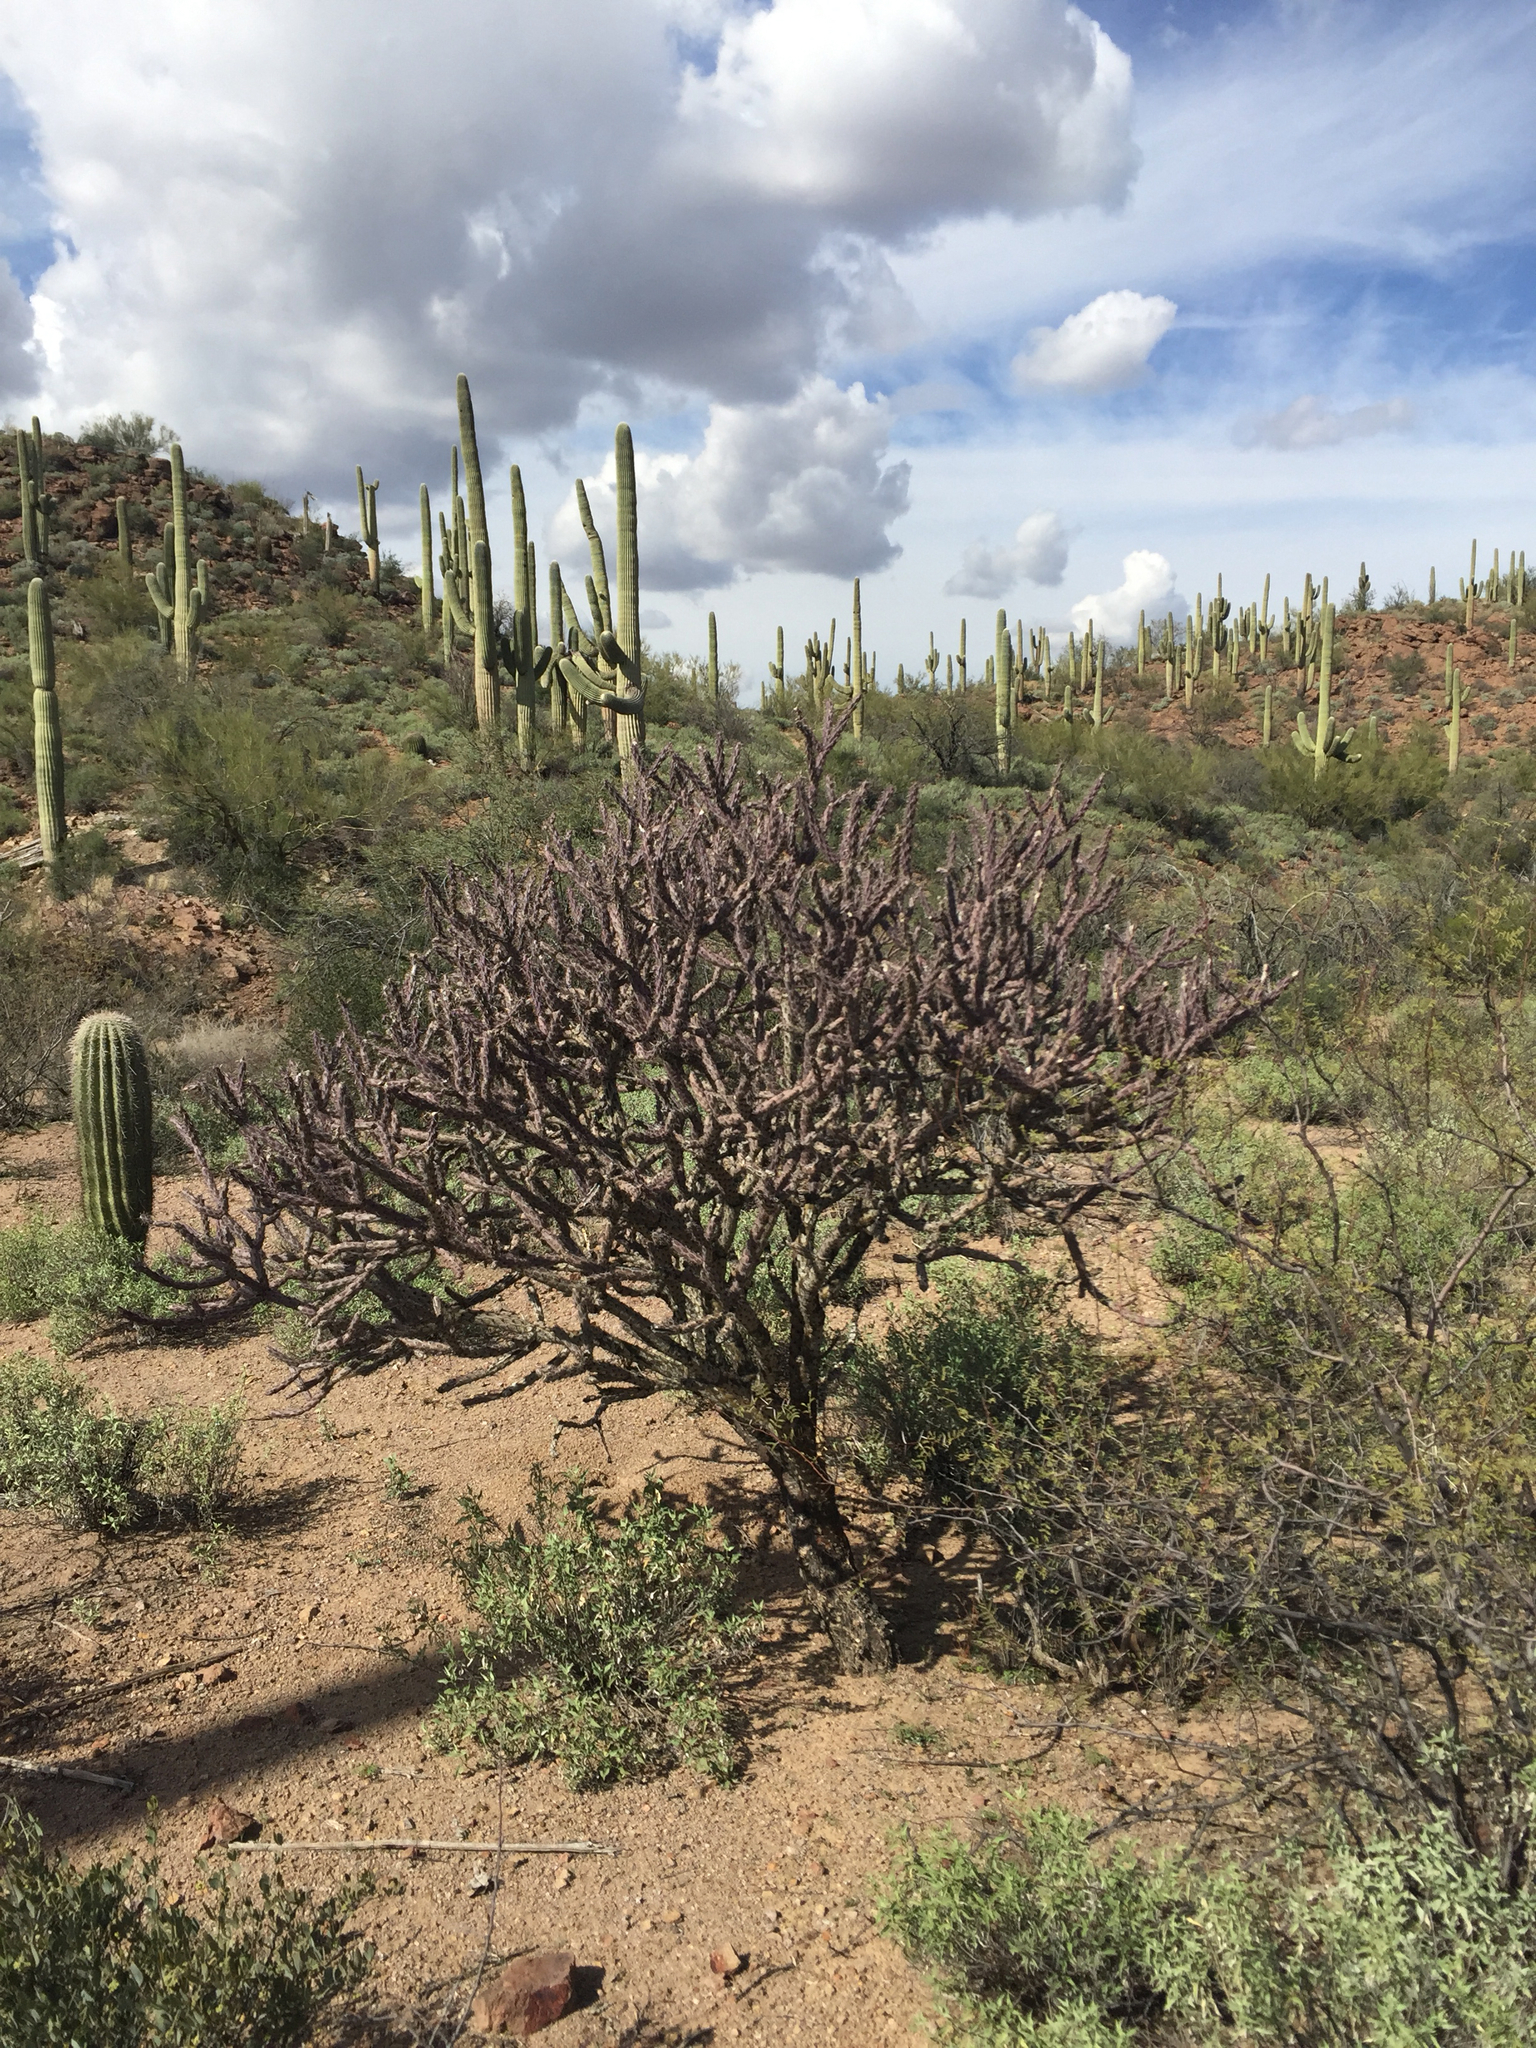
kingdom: Plantae
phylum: Tracheophyta
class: Magnoliopsida
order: Caryophyllales
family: Cactaceae
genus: Cylindropuntia
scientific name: Cylindropuntia thurberi
